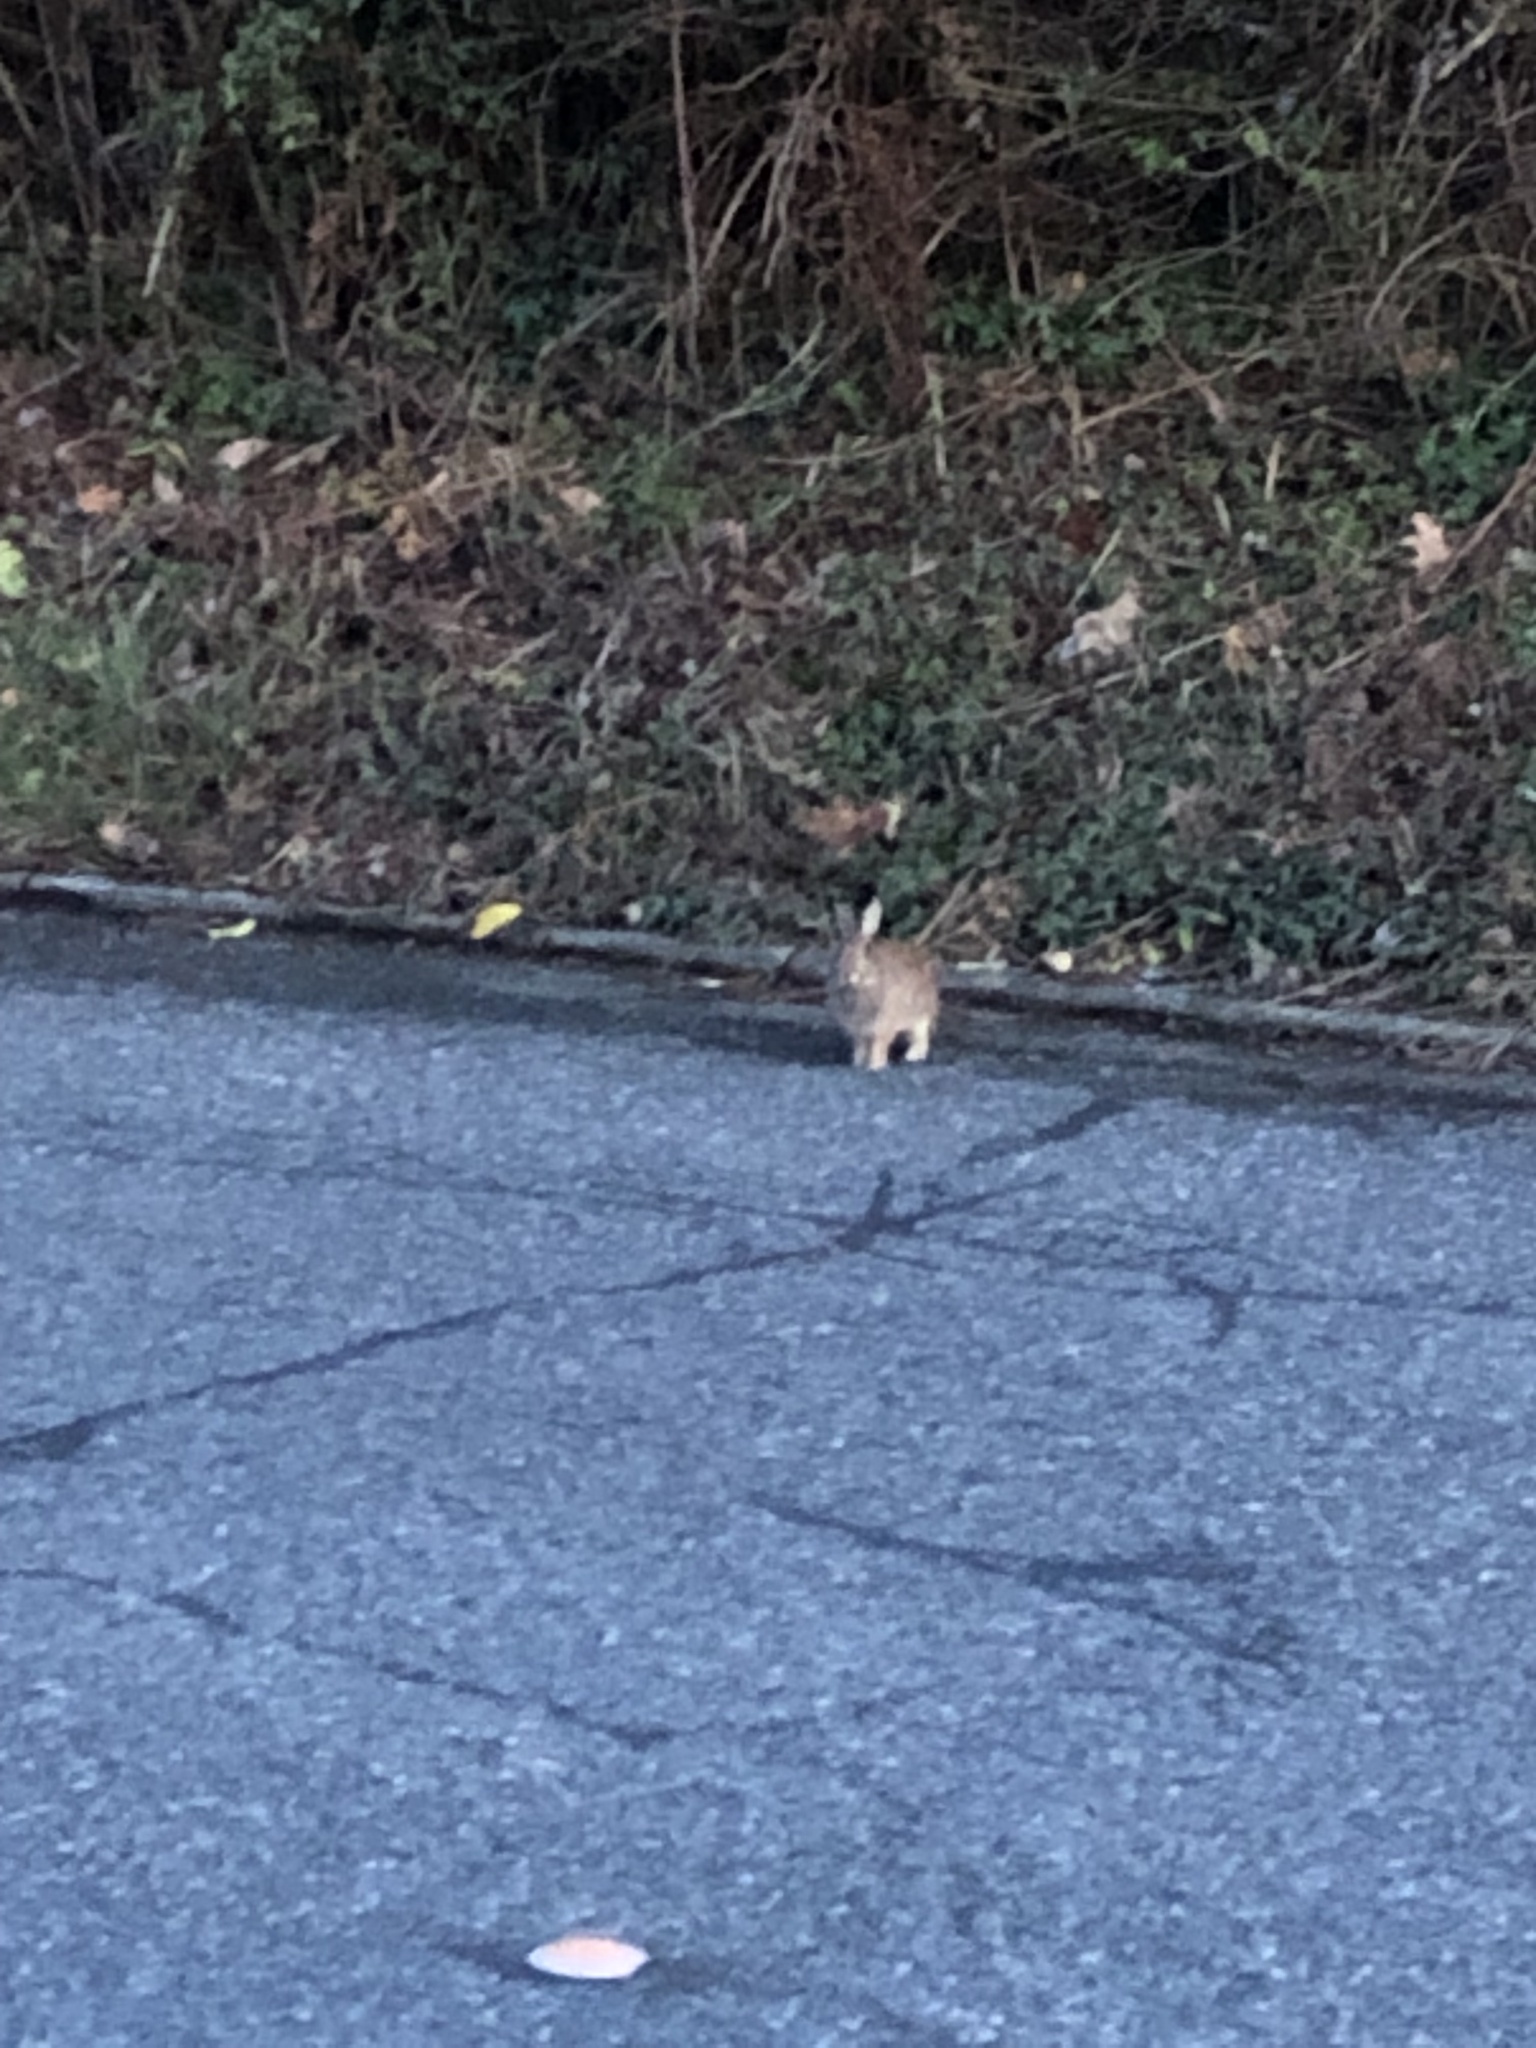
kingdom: Animalia
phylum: Chordata
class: Mammalia
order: Lagomorpha
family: Leporidae
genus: Sylvilagus
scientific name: Sylvilagus floridanus
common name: Eastern cottontail
